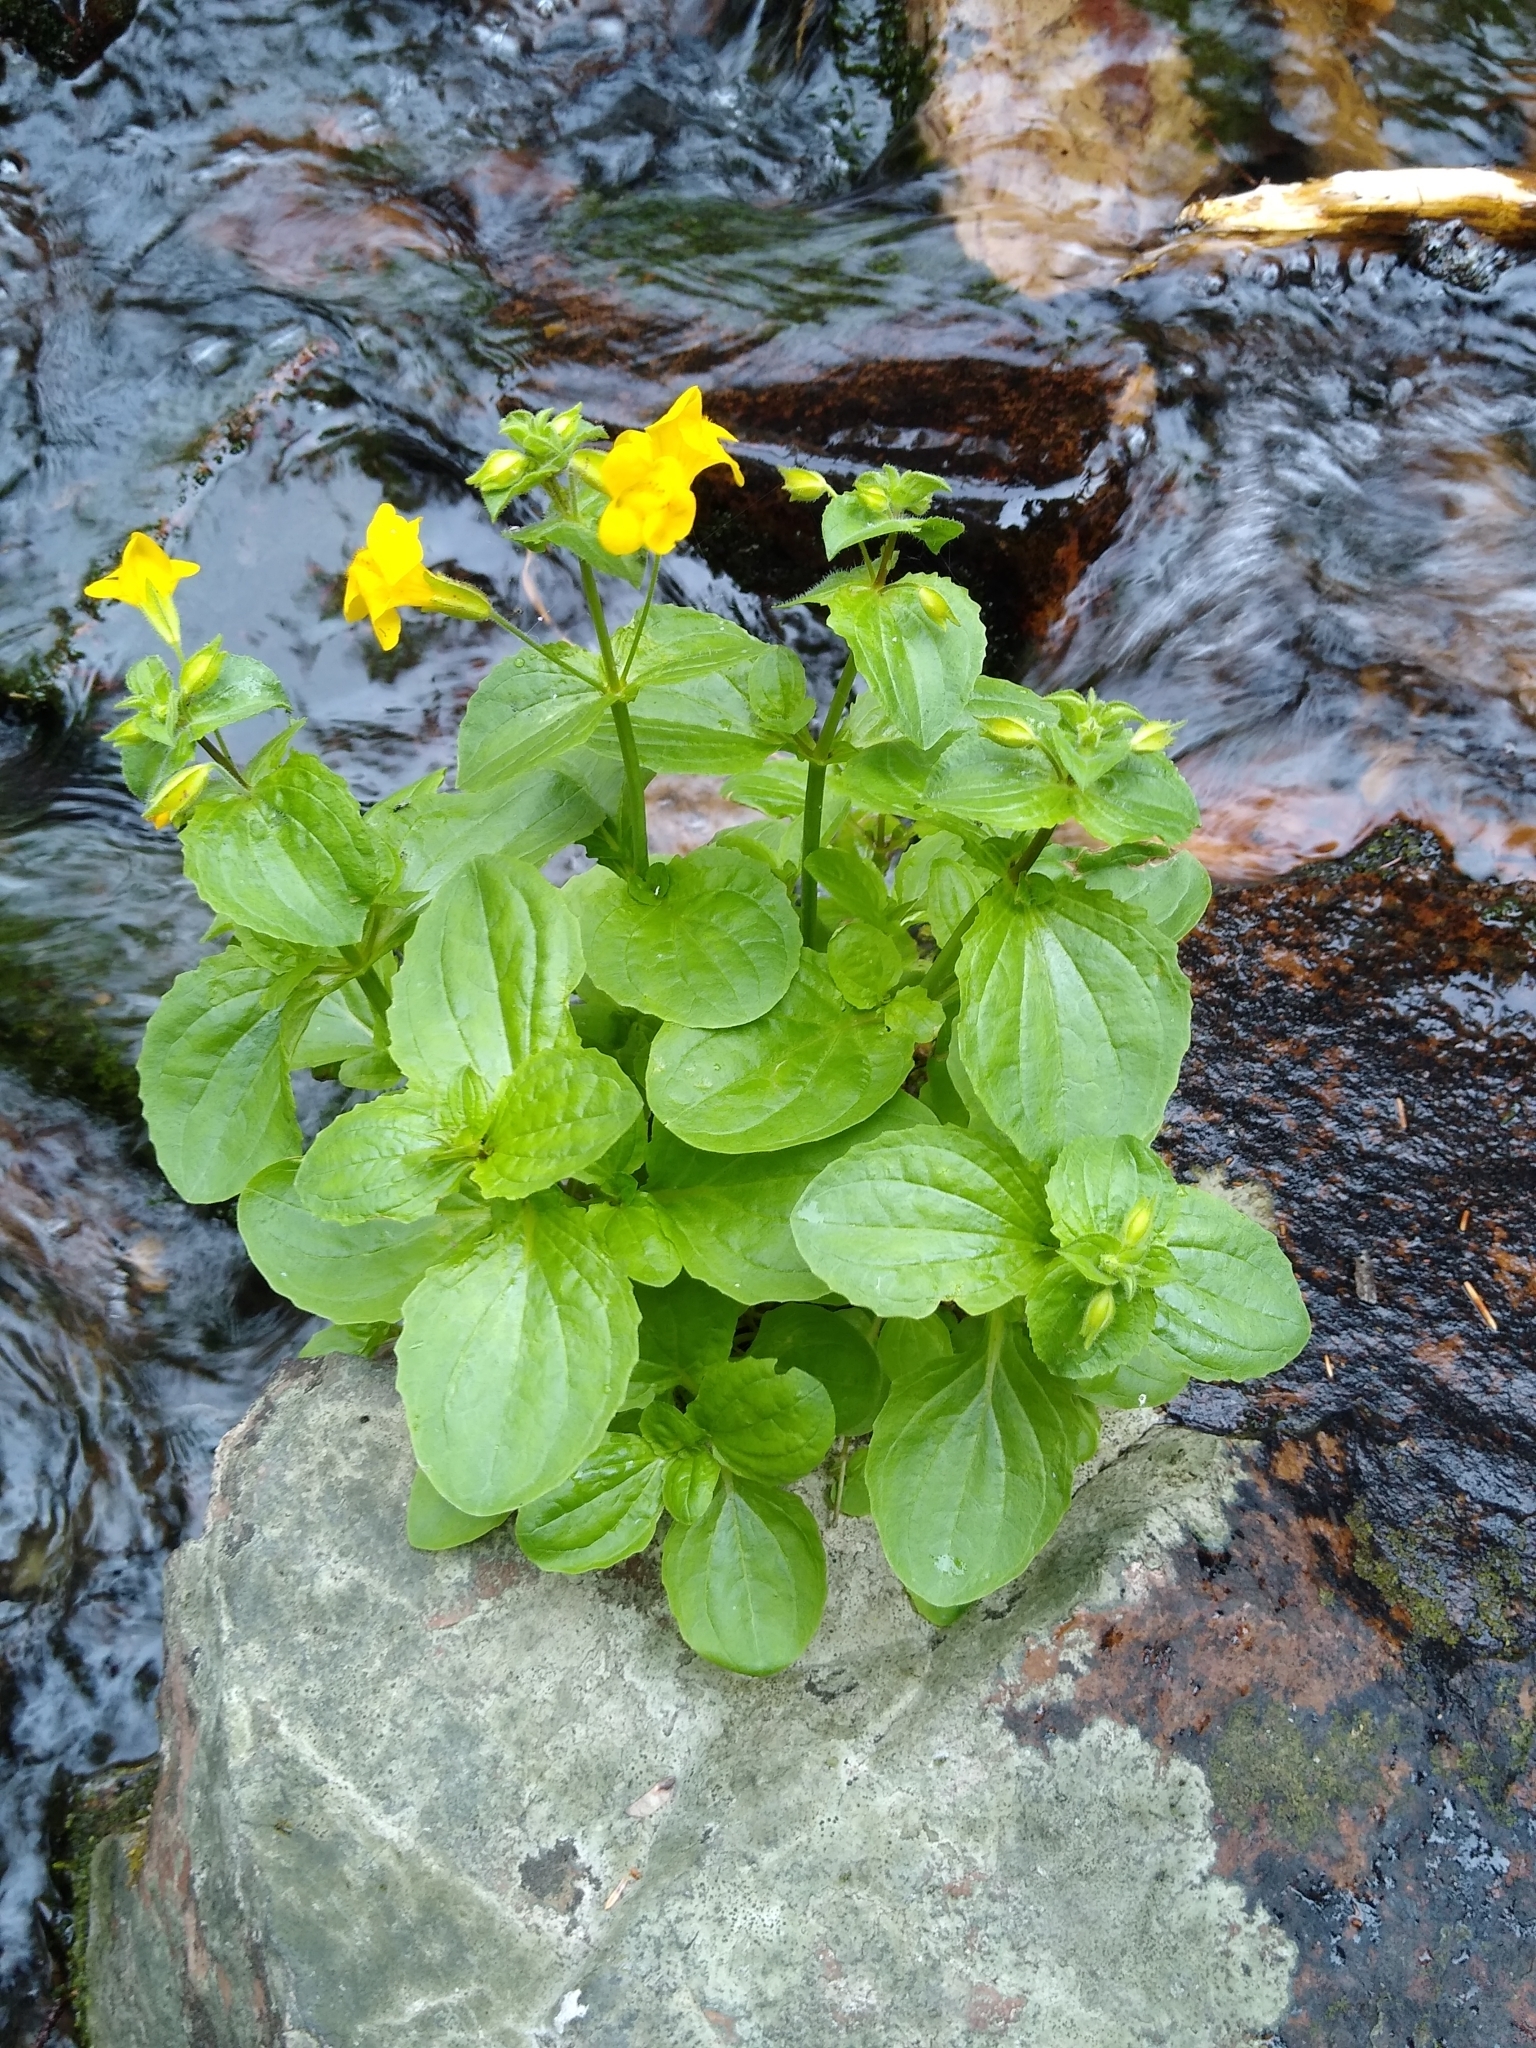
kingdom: Plantae
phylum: Tracheophyta
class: Magnoliopsida
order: Lamiales
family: Phrymaceae
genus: Erythranthe
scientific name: Erythranthe guttata
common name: Monkeyflower
